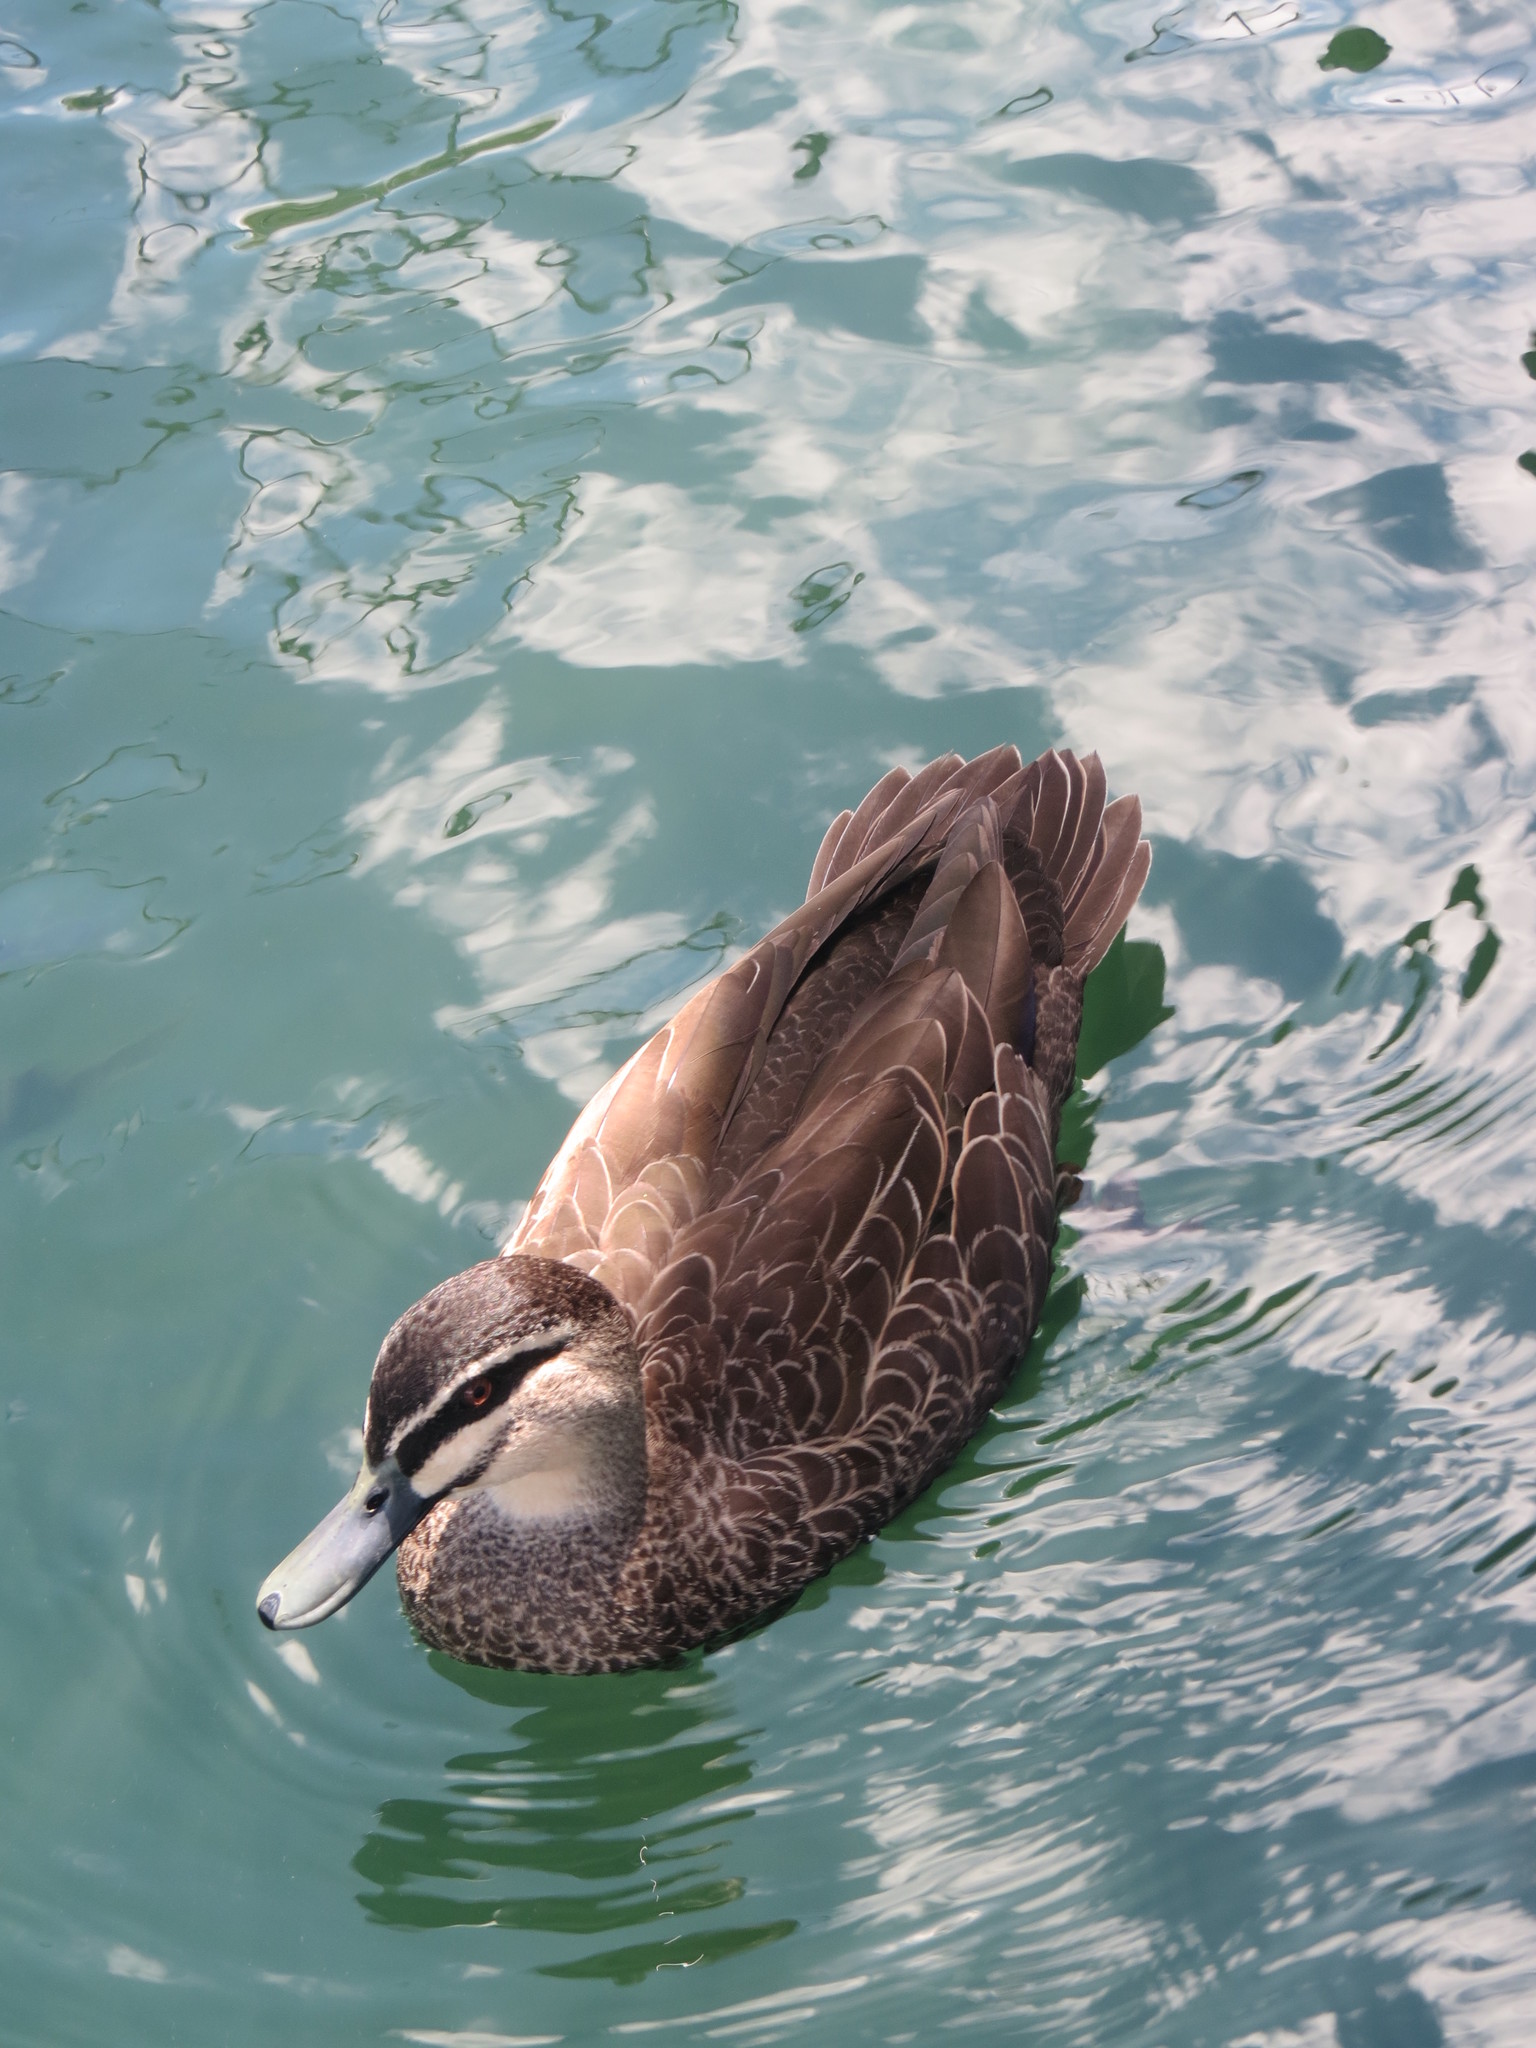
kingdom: Animalia
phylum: Chordata
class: Aves
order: Anseriformes
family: Anatidae
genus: Anas
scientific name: Anas superciliosa
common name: Pacific black duck
